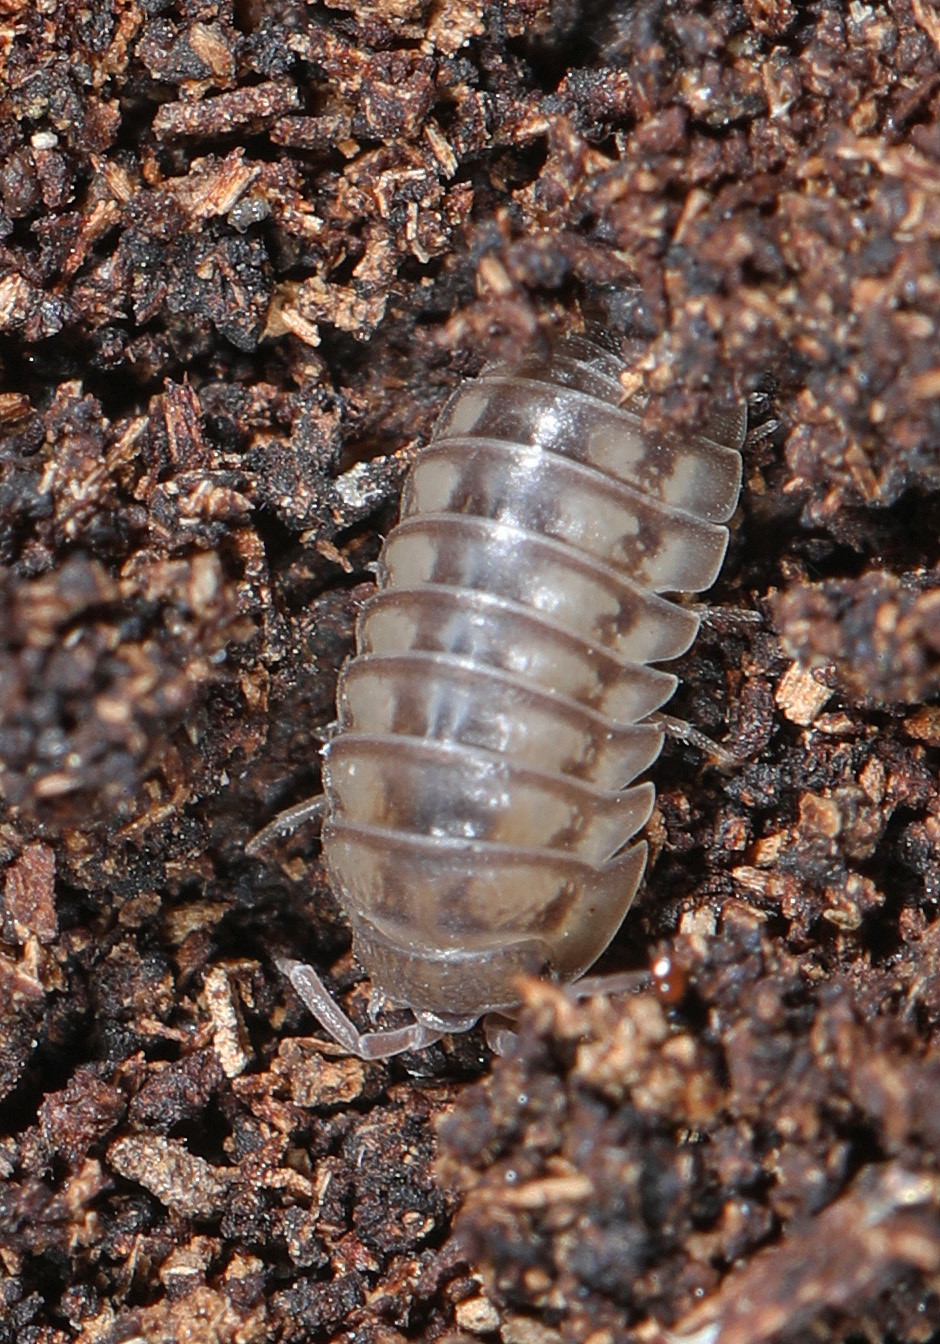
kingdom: Animalia
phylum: Arthropoda
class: Malacostraca
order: Isopoda
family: Armadillidiidae
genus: Armadillidium
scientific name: Armadillidium nasatum
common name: Isopod
